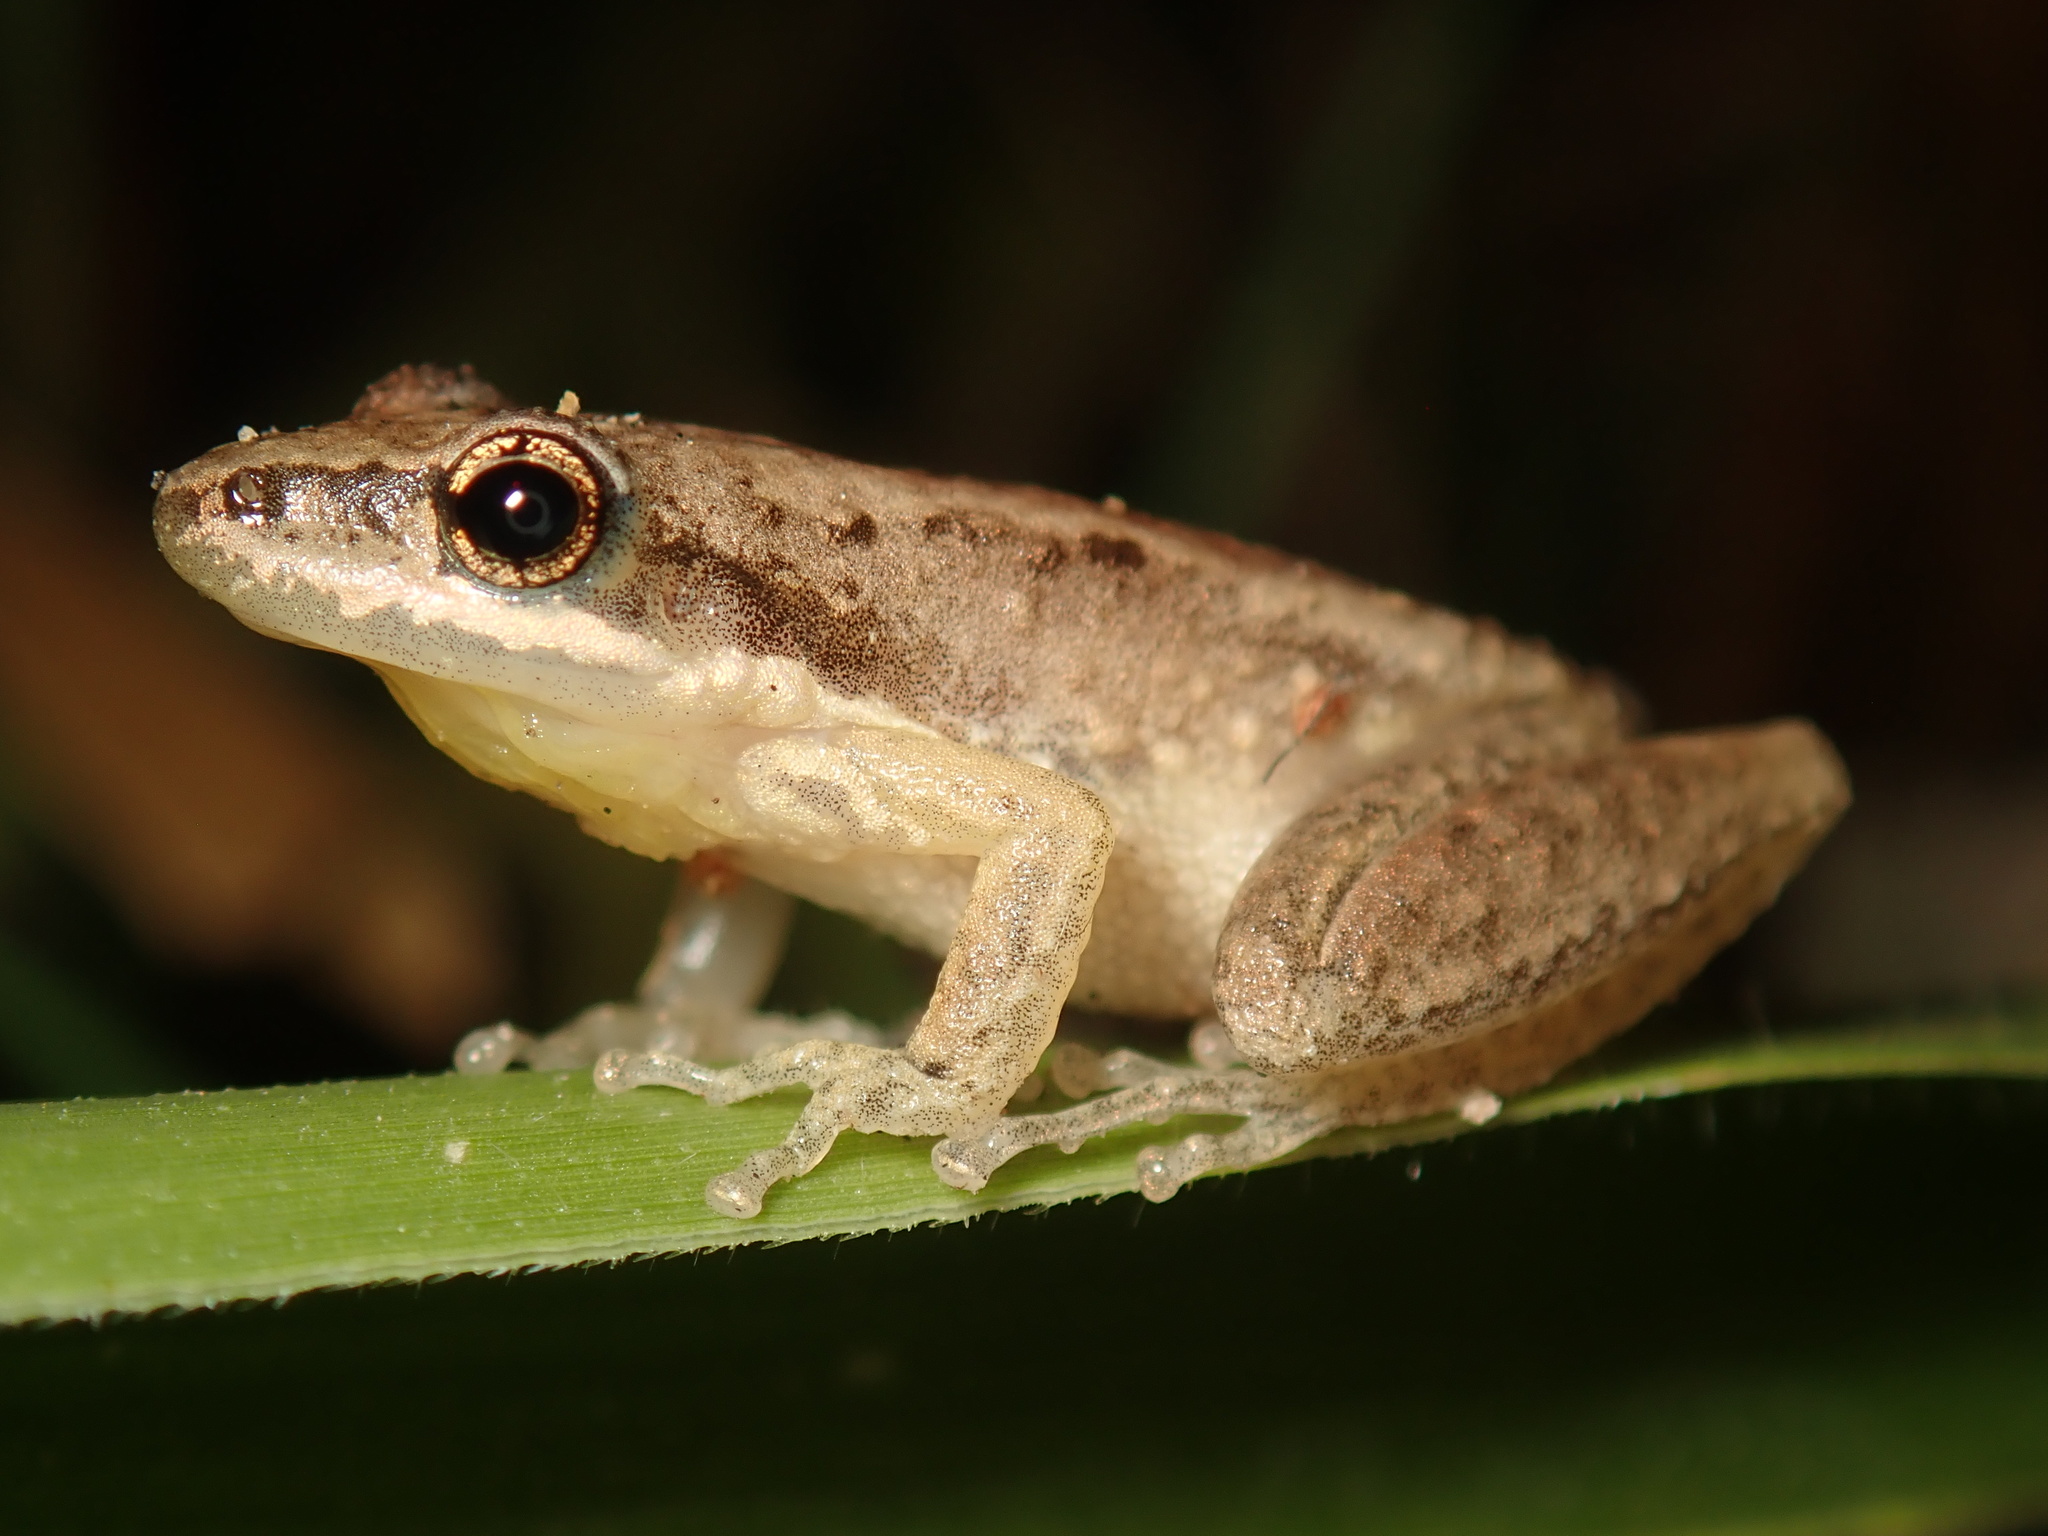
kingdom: Animalia
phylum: Chordata
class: Amphibia
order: Anura
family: Pelodryadidae
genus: Litoria
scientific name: Litoria microbelos
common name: Javelin frog
